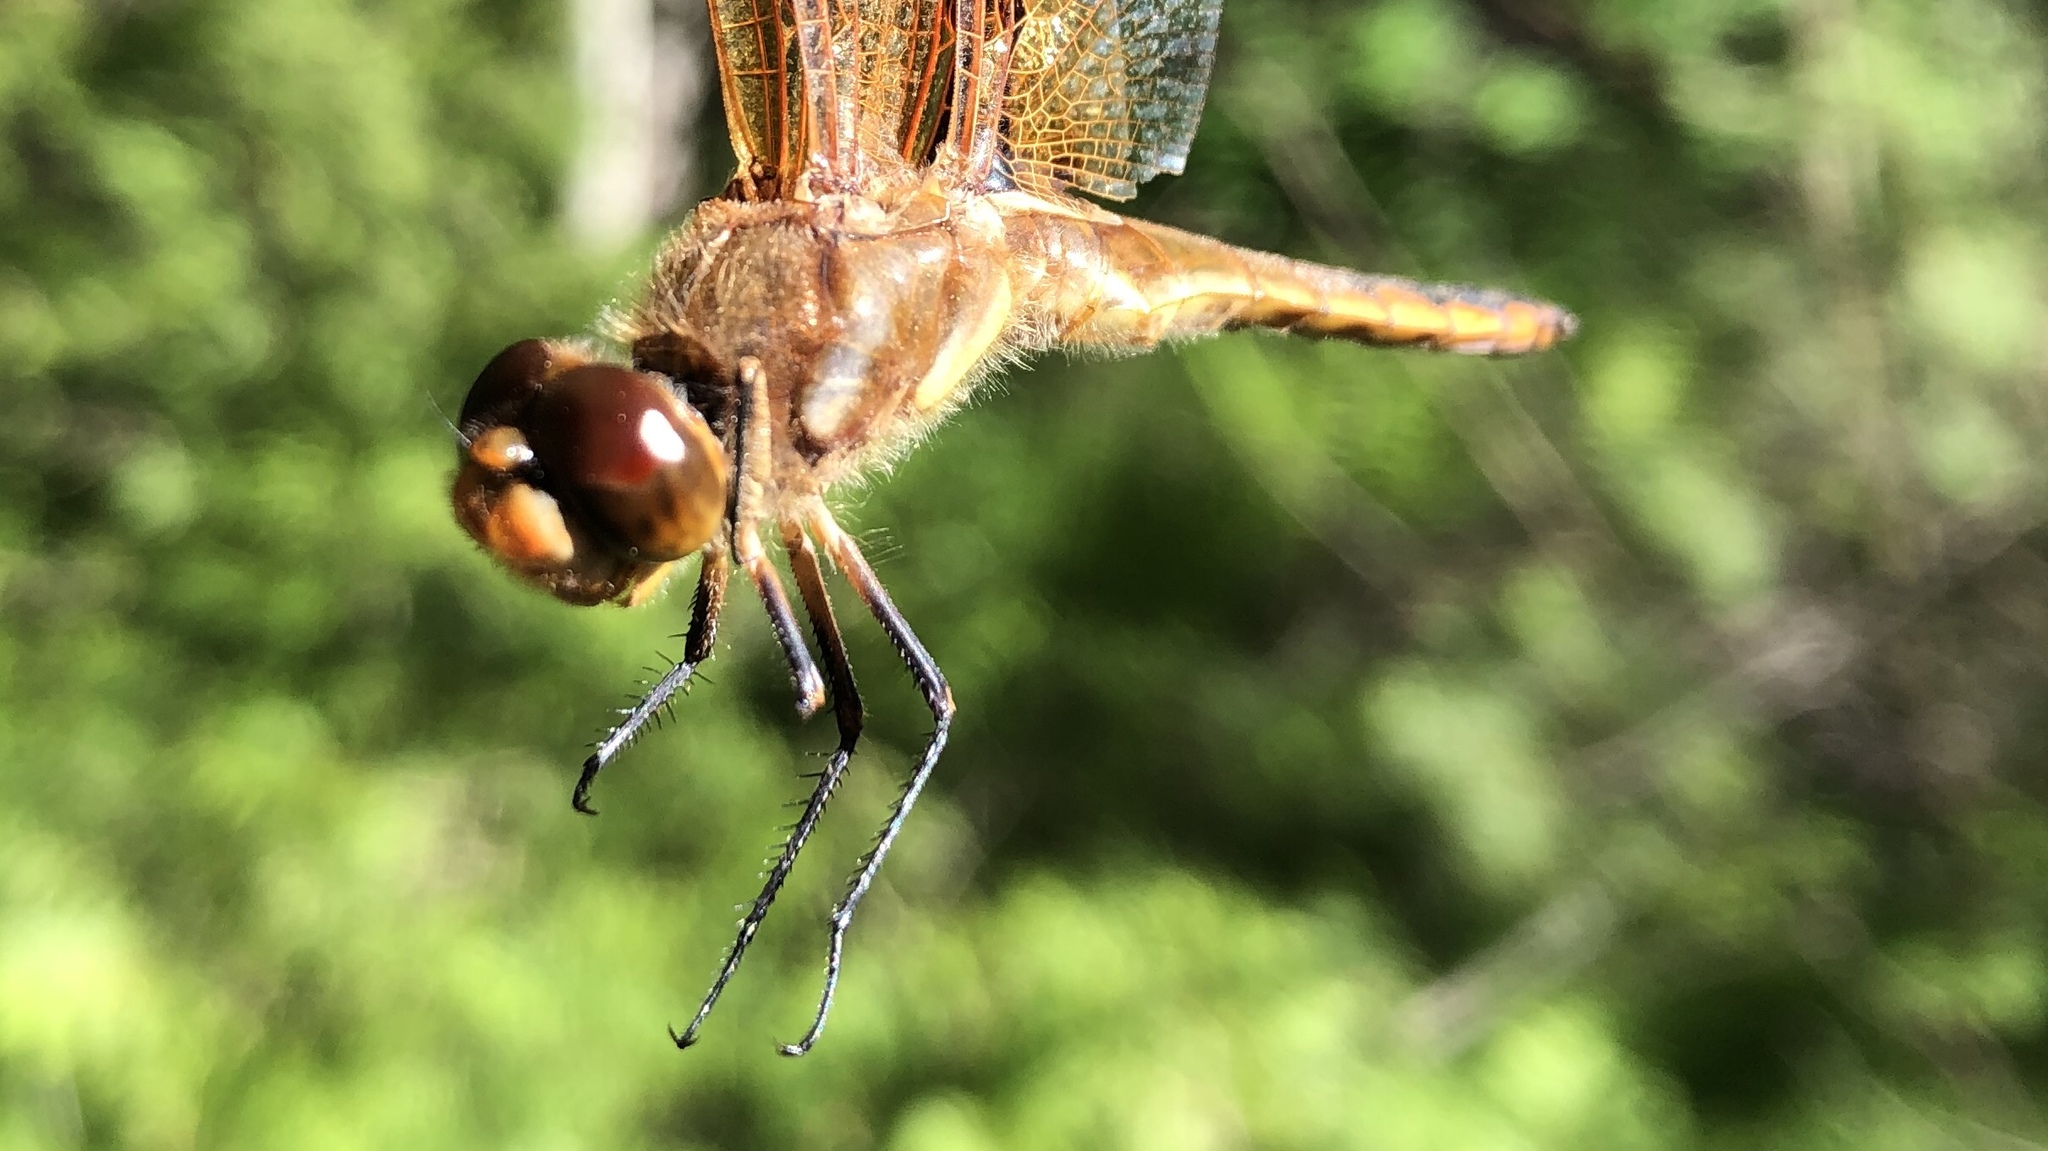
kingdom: Animalia
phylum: Arthropoda
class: Insecta
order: Odonata
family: Libellulidae
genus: Libellula
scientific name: Libellula semifasciata
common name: Painted skimmer
